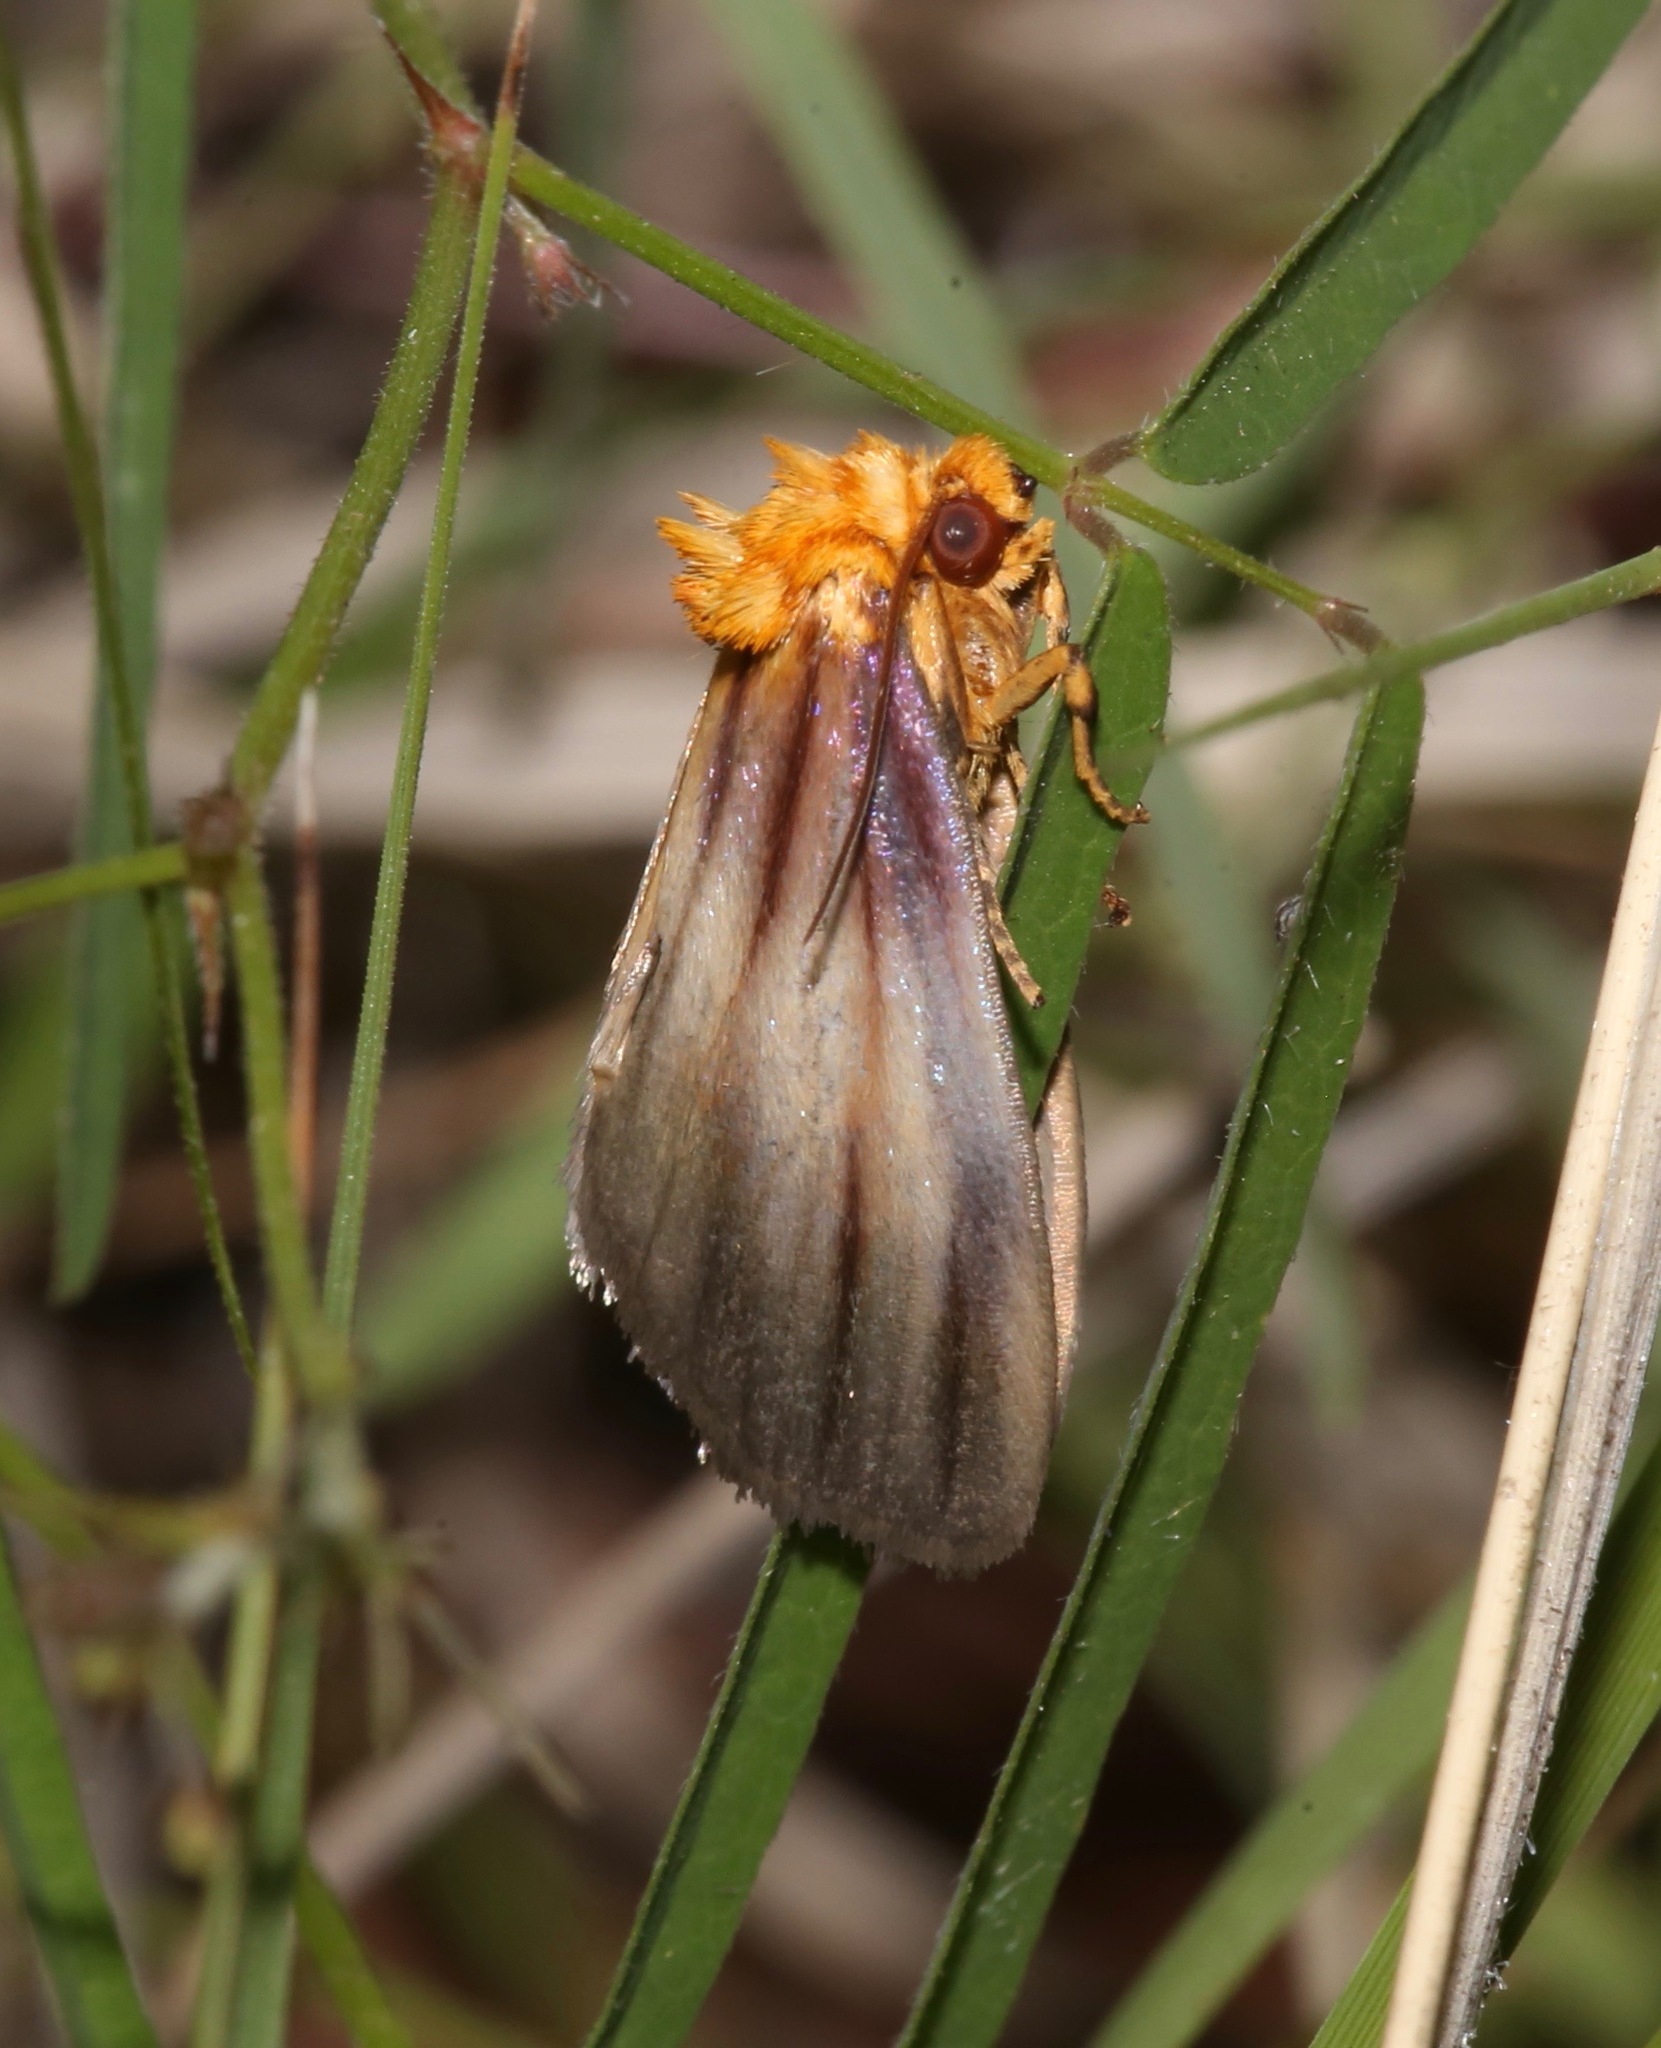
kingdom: Animalia
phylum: Arthropoda
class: Insecta
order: Lepidoptera
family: Noctuidae
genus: Antaplaga
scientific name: Antaplaga plesioglauca
